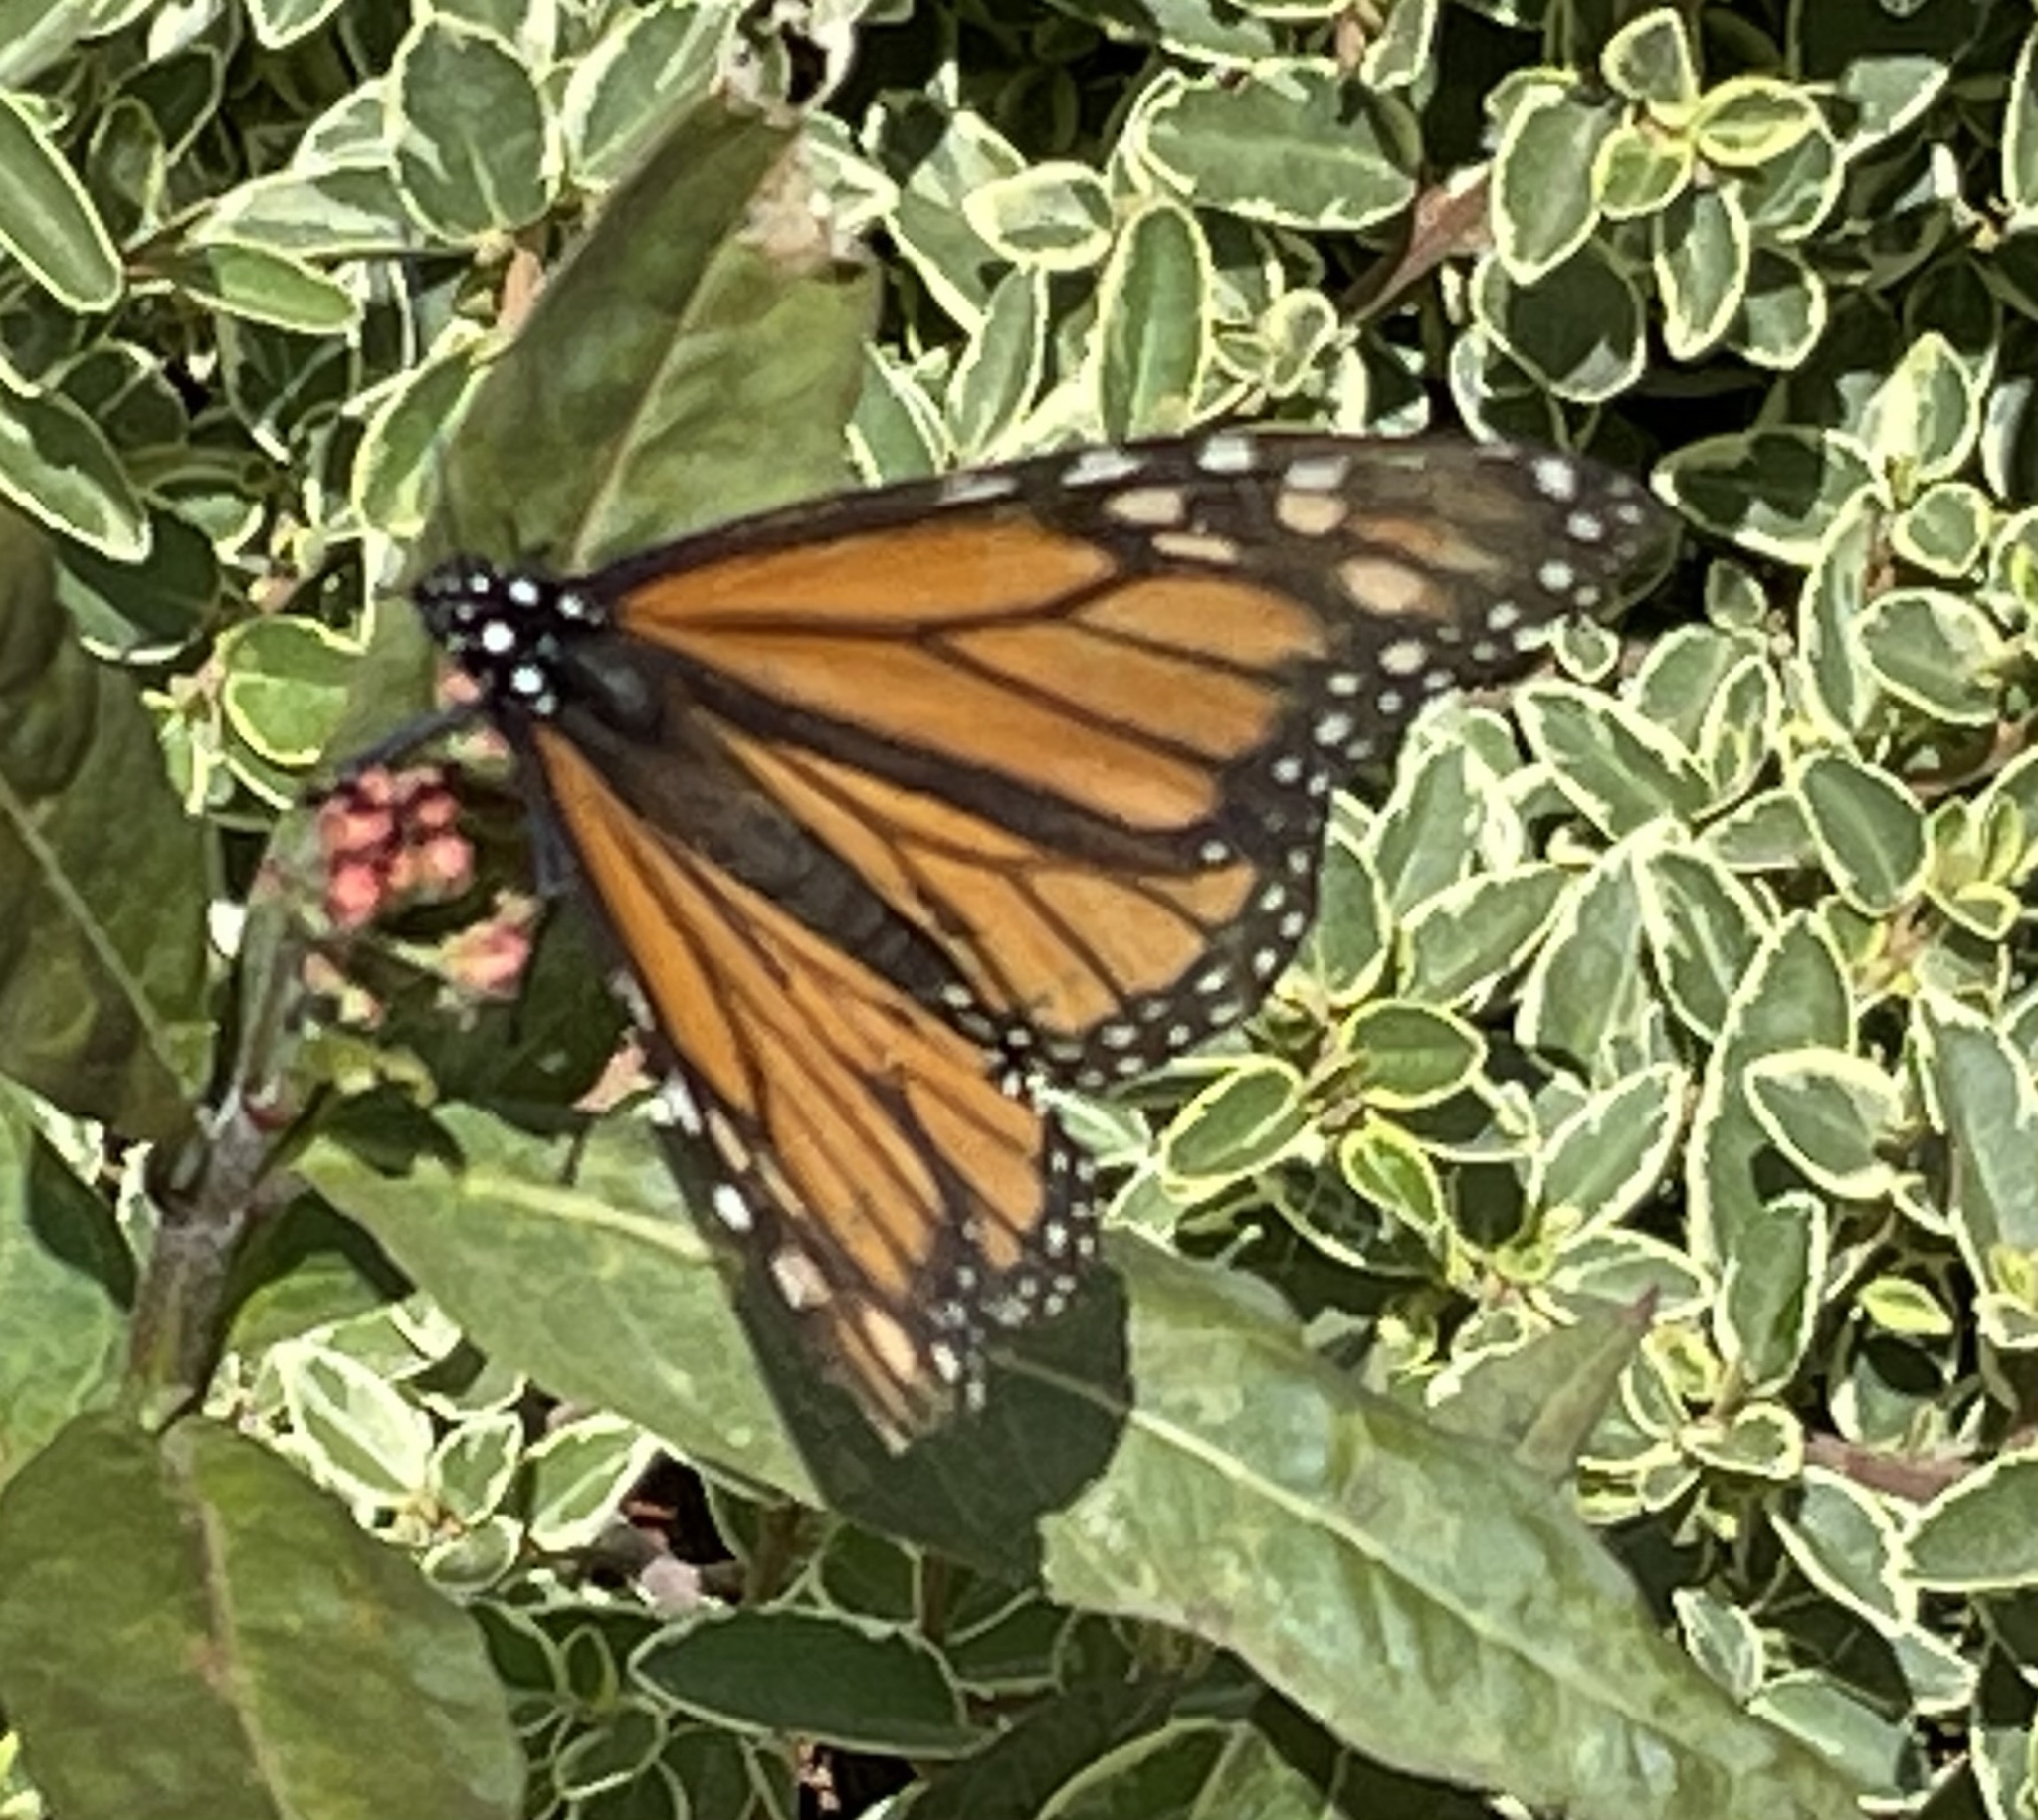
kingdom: Animalia
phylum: Arthropoda
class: Insecta
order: Lepidoptera
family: Nymphalidae
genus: Danaus
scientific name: Danaus plexippus
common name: Monarch
